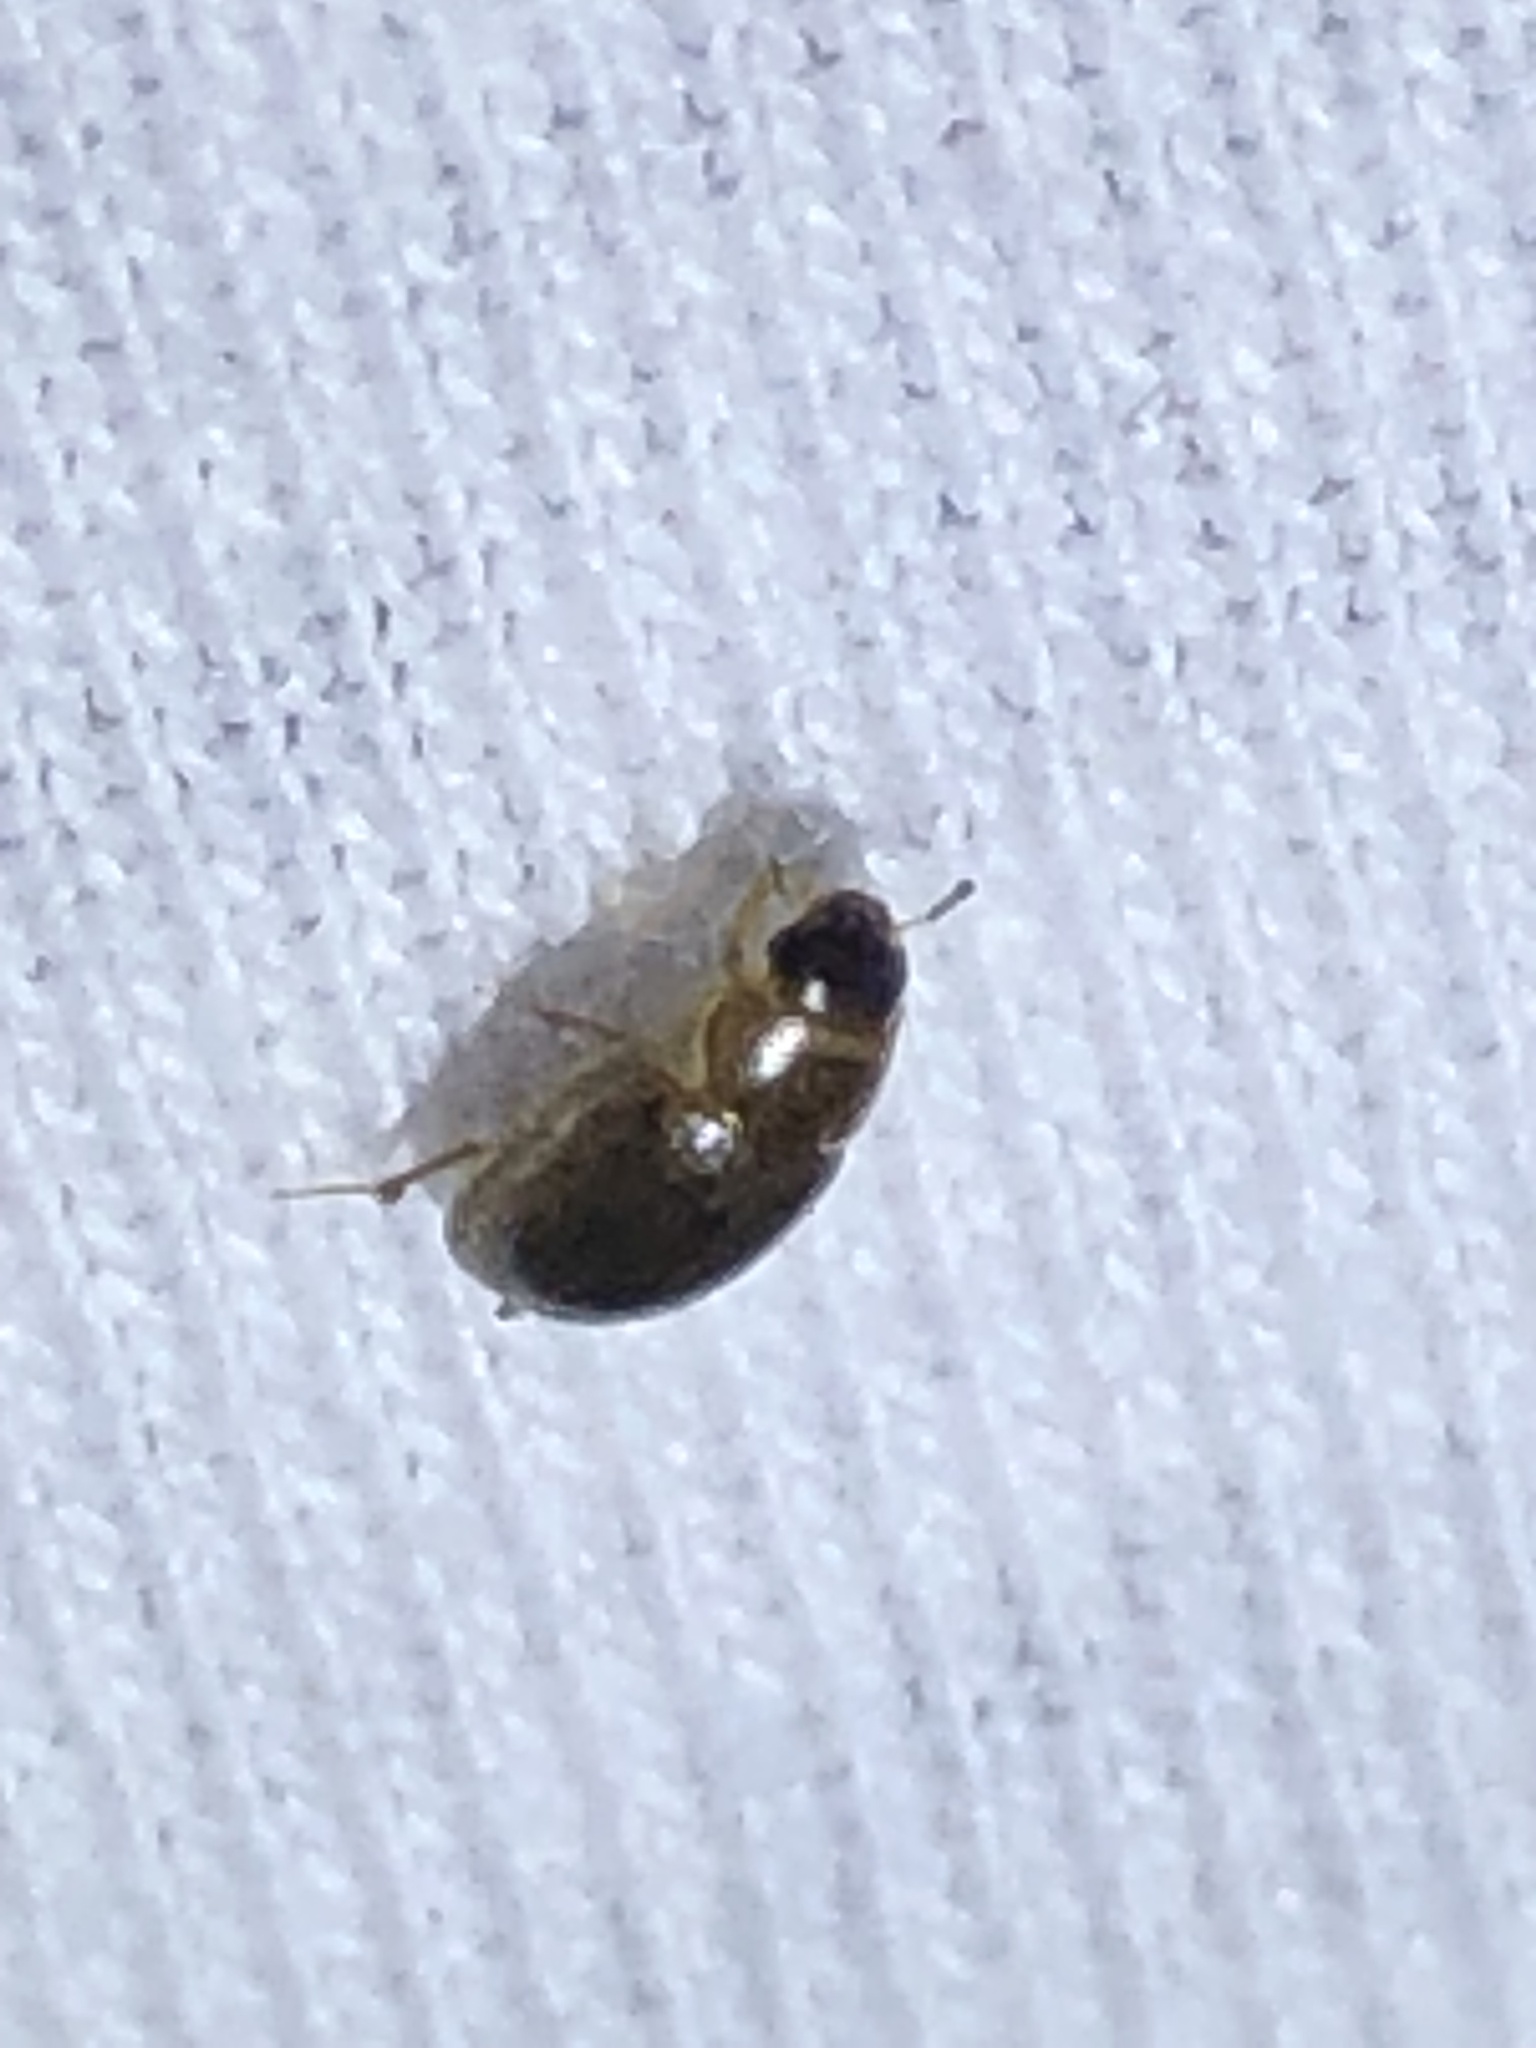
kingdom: Animalia
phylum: Arthropoda
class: Insecta
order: Coleoptera
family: Hydrophilidae
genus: Enochrus
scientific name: Enochrus
